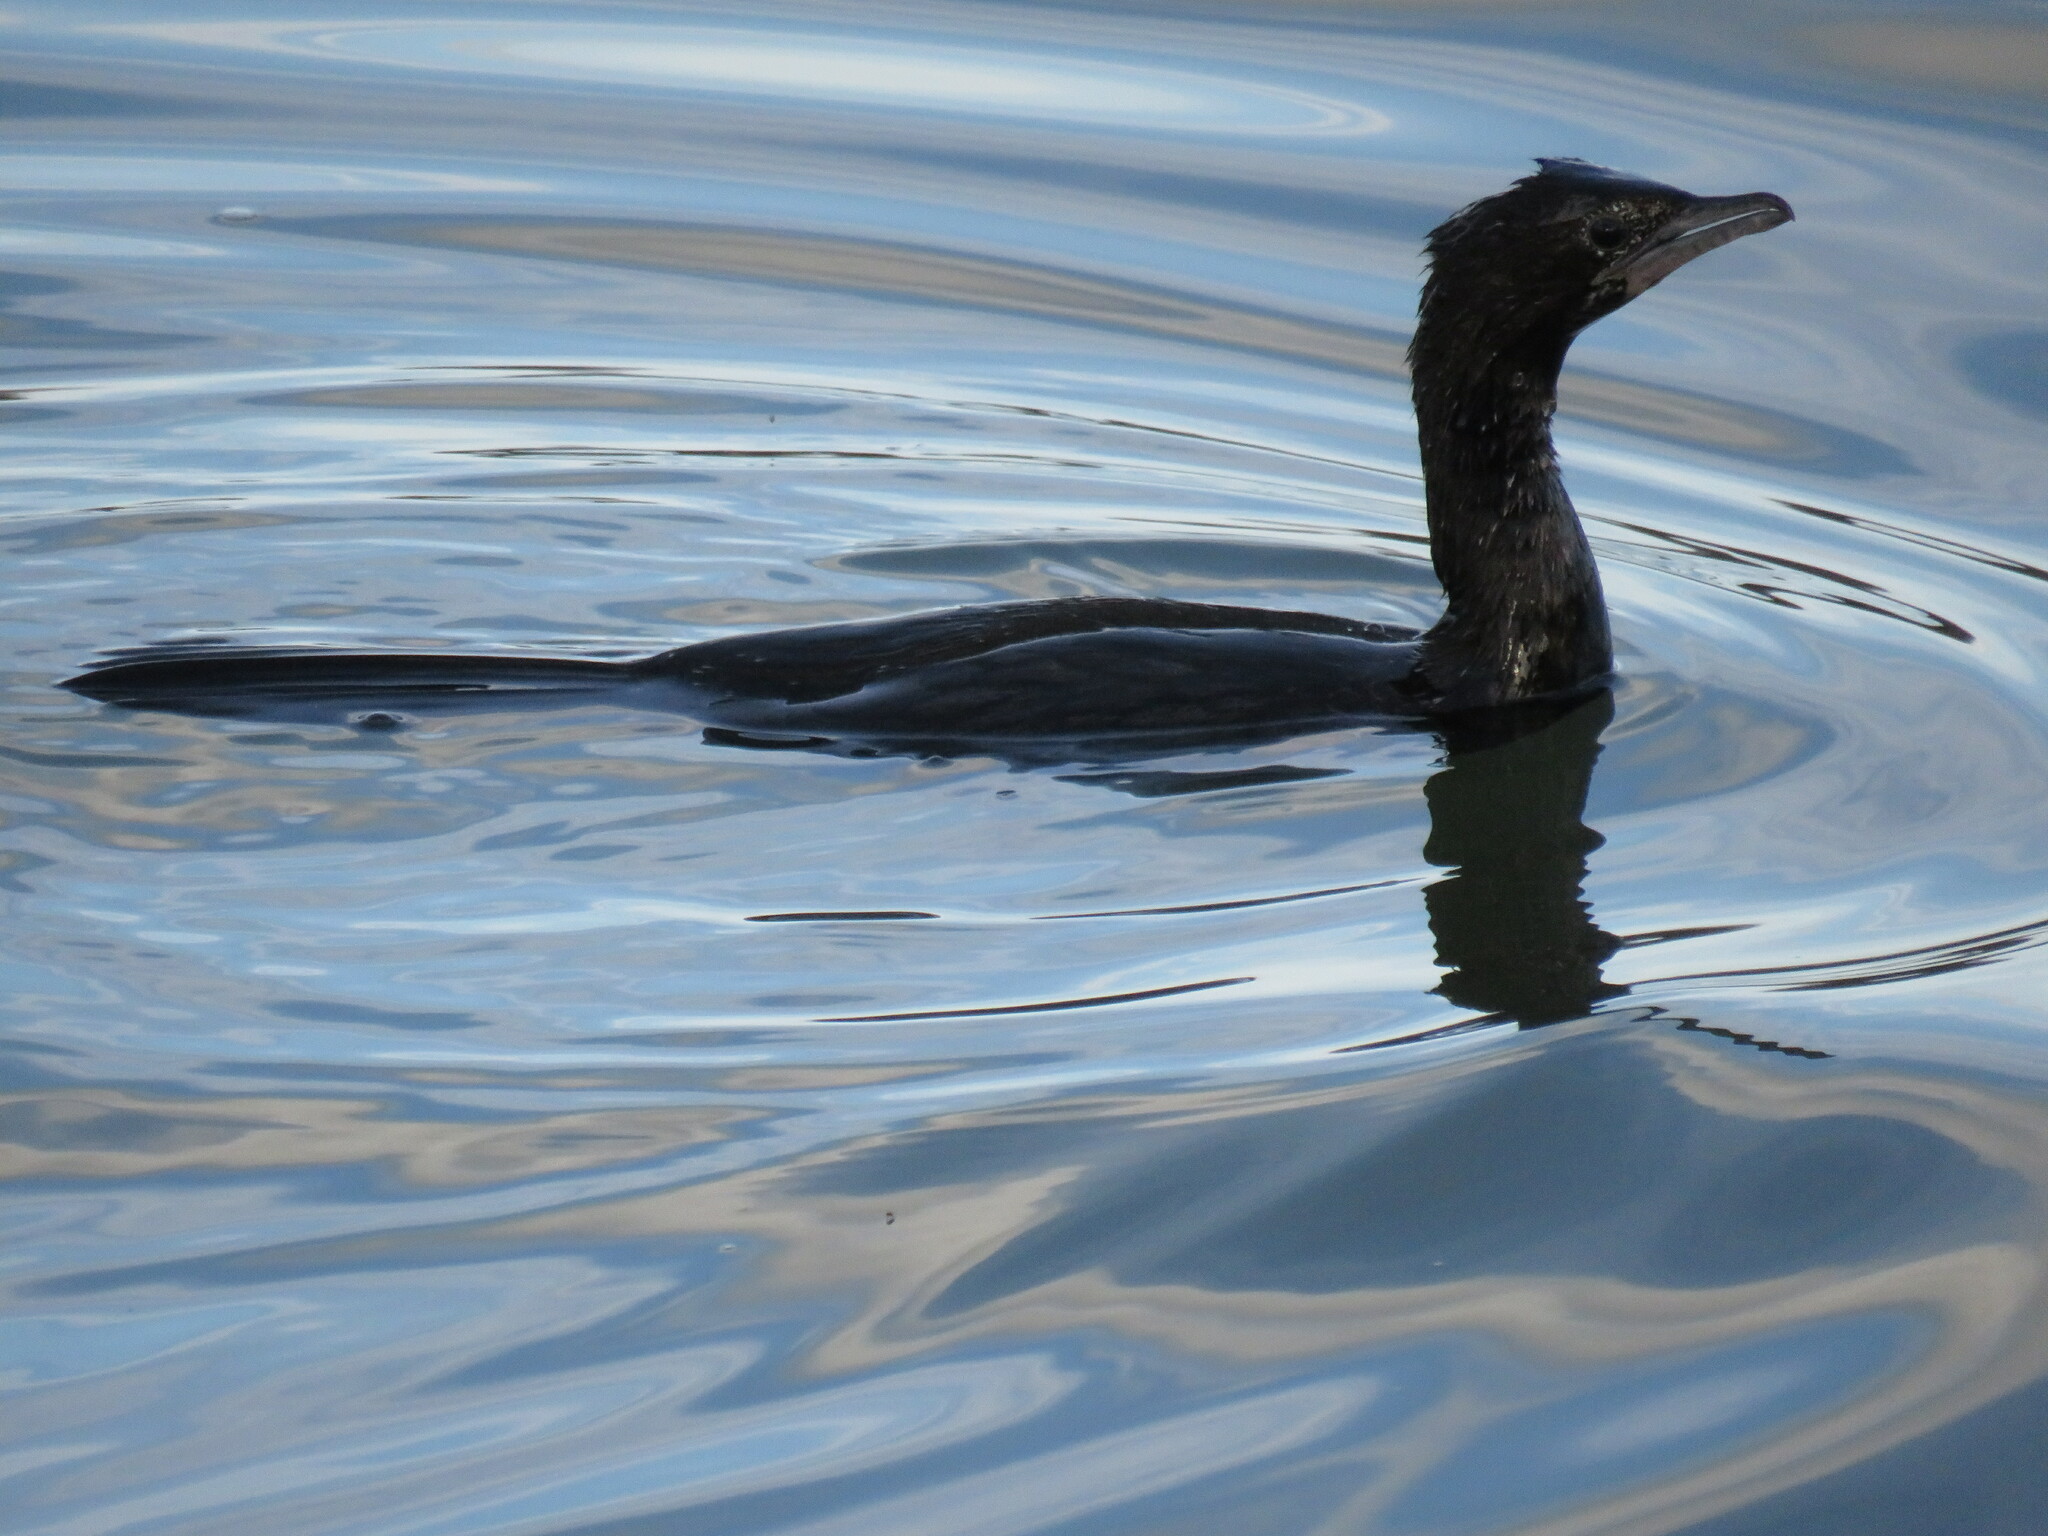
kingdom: Animalia
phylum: Chordata
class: Aves
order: Suliformes
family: Phalacrocoracidae
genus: Microcarbo
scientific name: Microcarbo pygmaeus
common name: Pygmy cormorant
